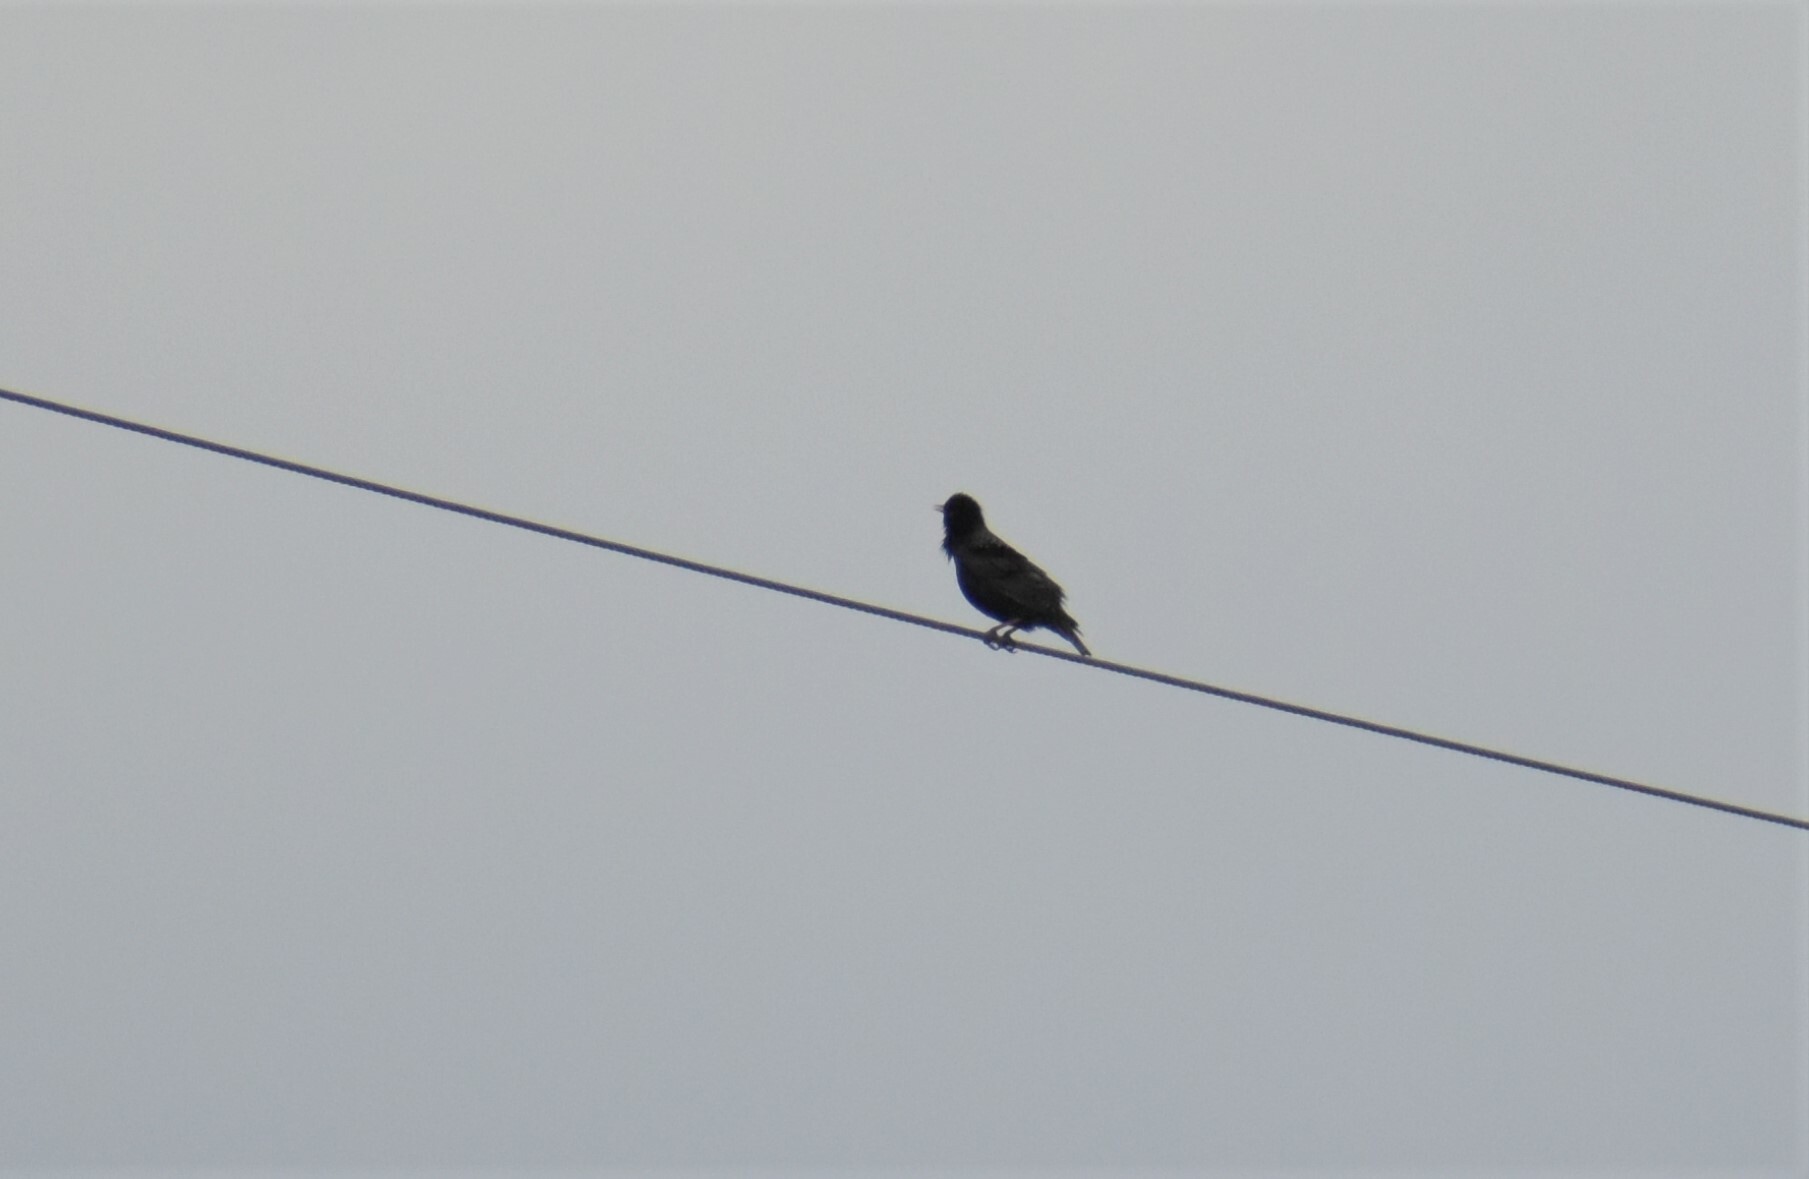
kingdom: Animalia
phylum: Chordata
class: Aves
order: Passeriformes
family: Sturnidae
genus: Sturnus
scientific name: Sturnus vulgaris
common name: Common starling
